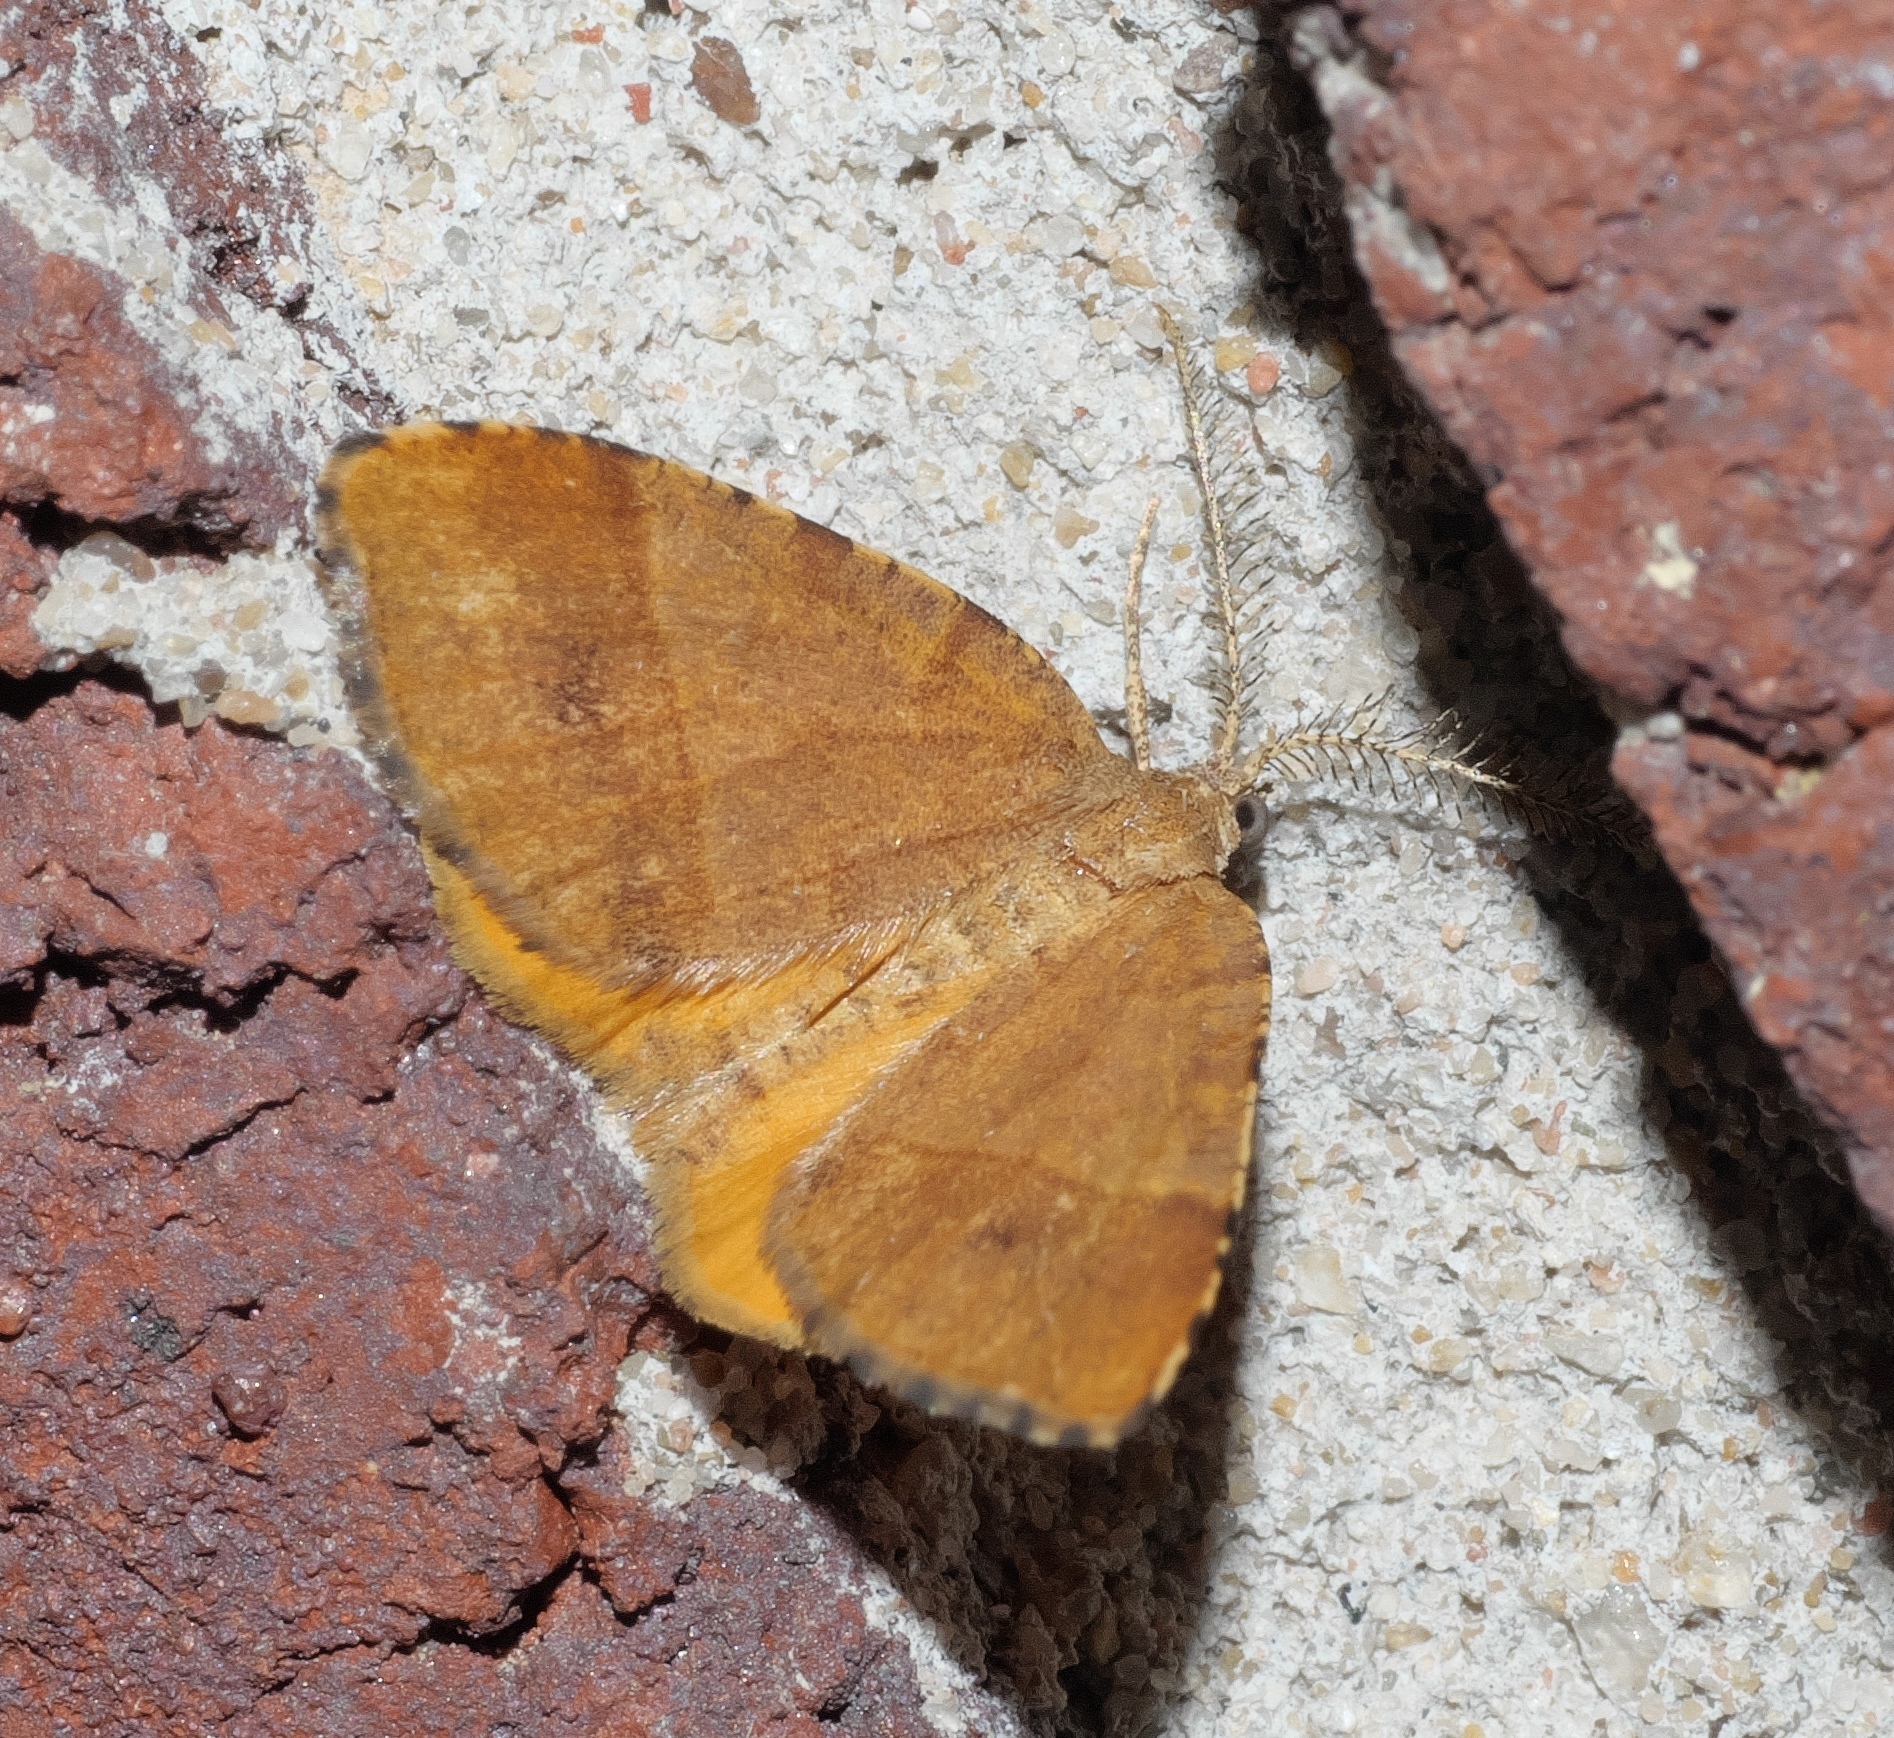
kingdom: Animalia
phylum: Arthropoda
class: Insecta
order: Lepidoptera
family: Geometridae
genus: Mellilla
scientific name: Mellilla xanthometata
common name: Orange wing moth
